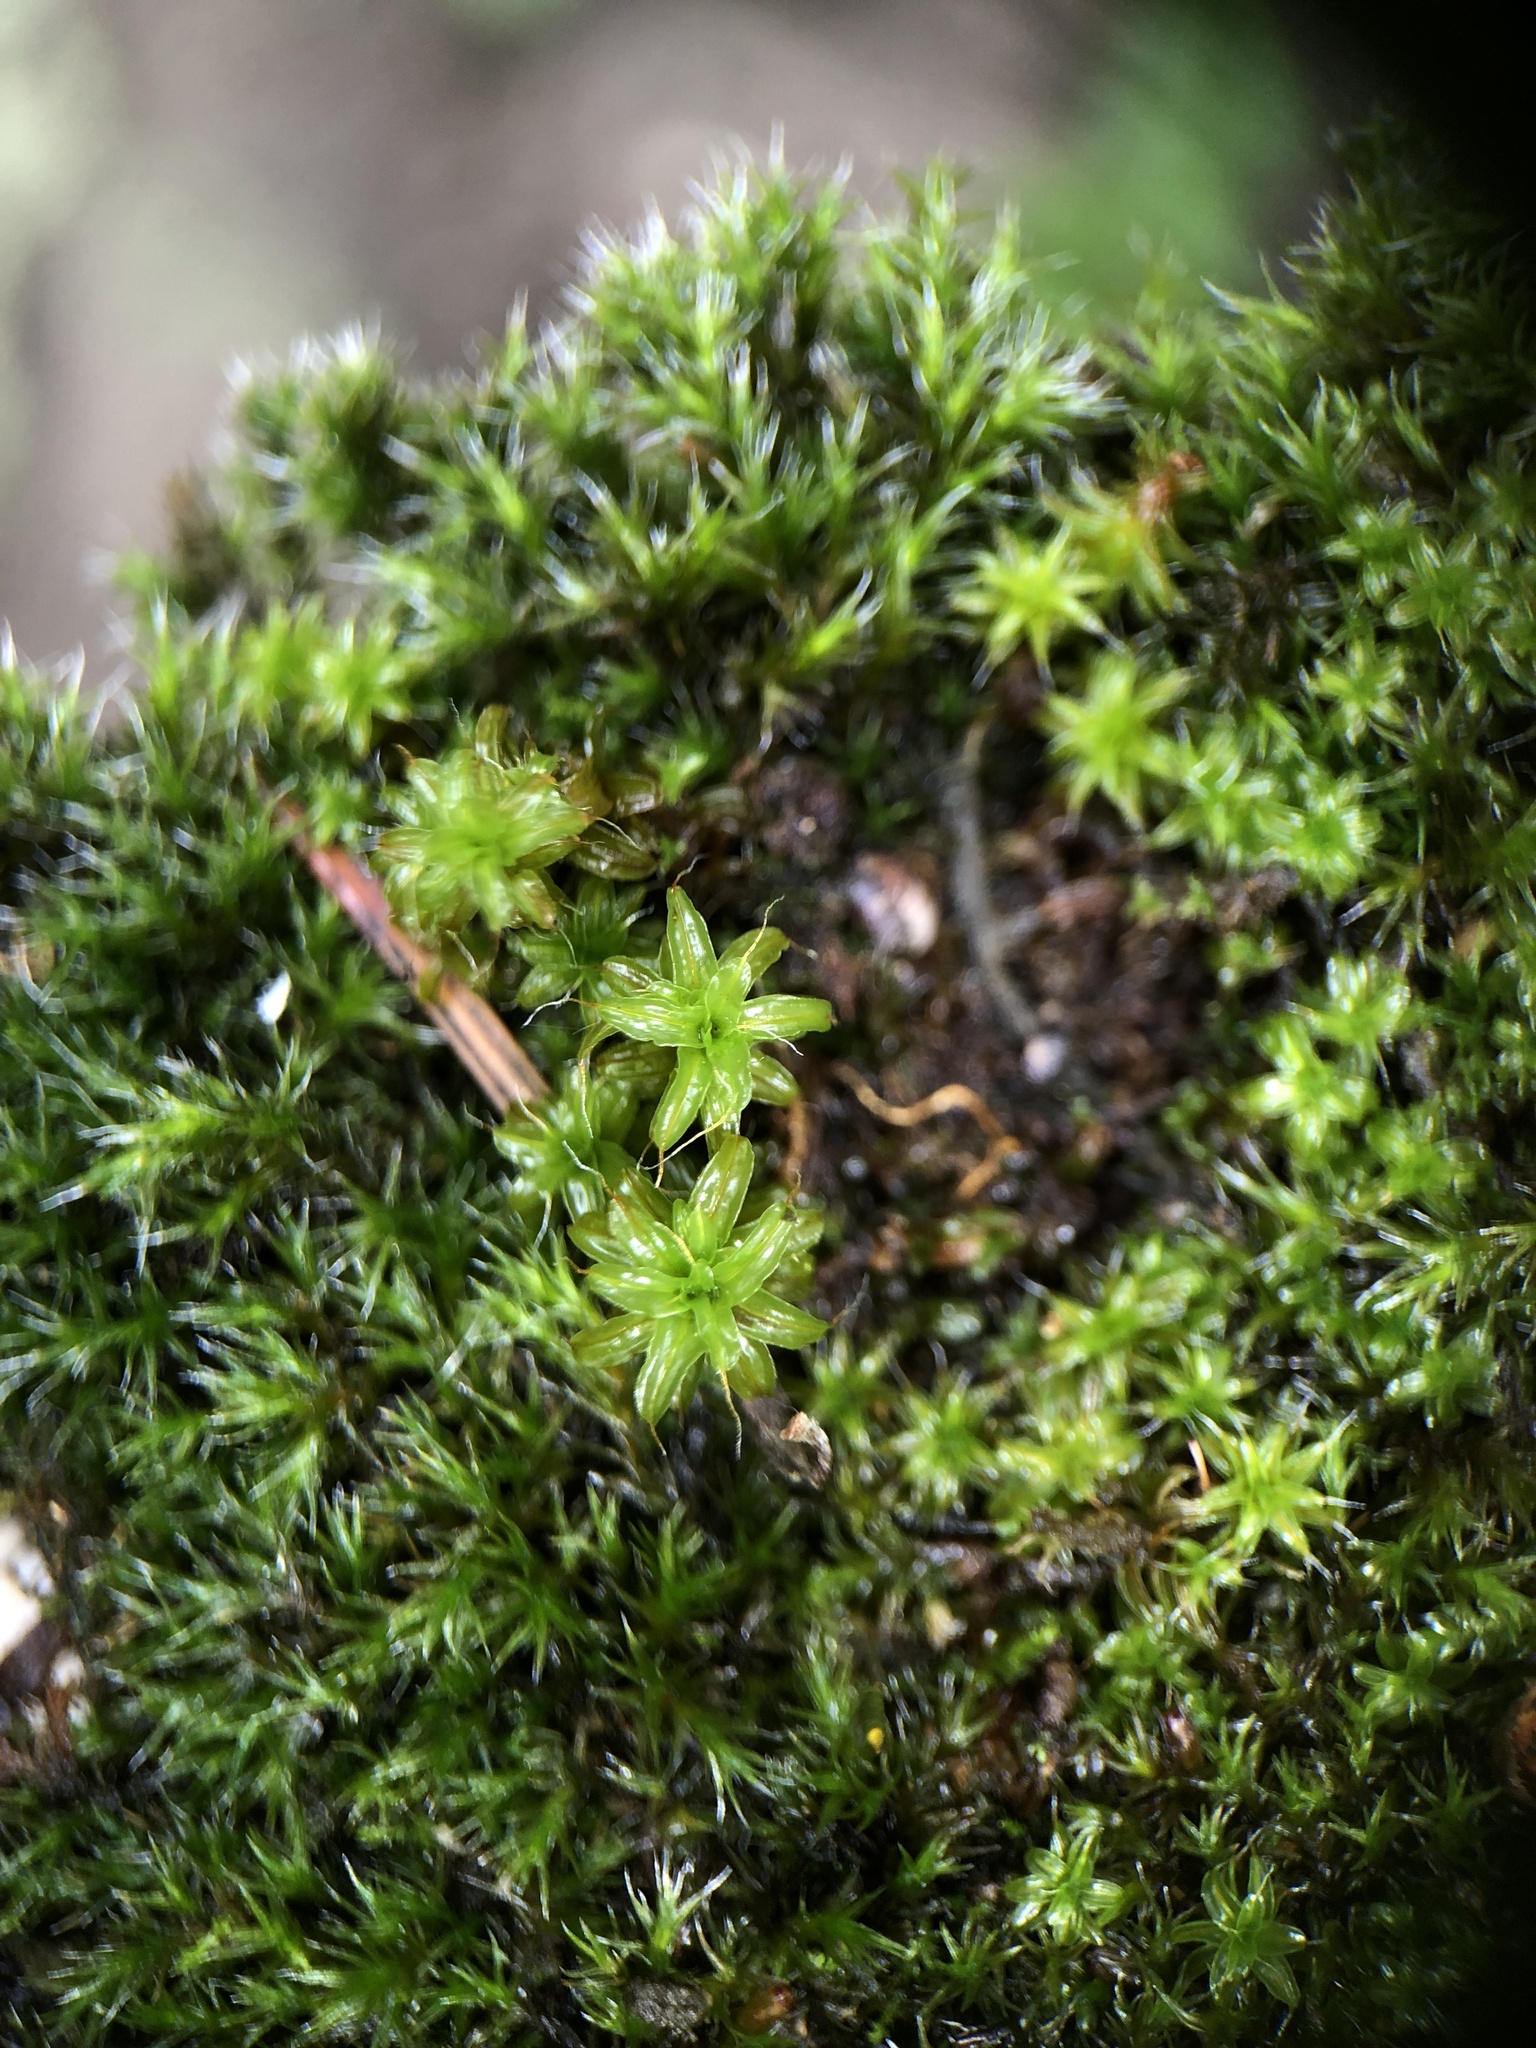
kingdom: Plantae
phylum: Bryophyta
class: Bryopsida
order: Pottiales
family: Pottiaceae
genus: Syntrichia
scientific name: Syntrichia ruralis
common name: Sidewalk screw moss
